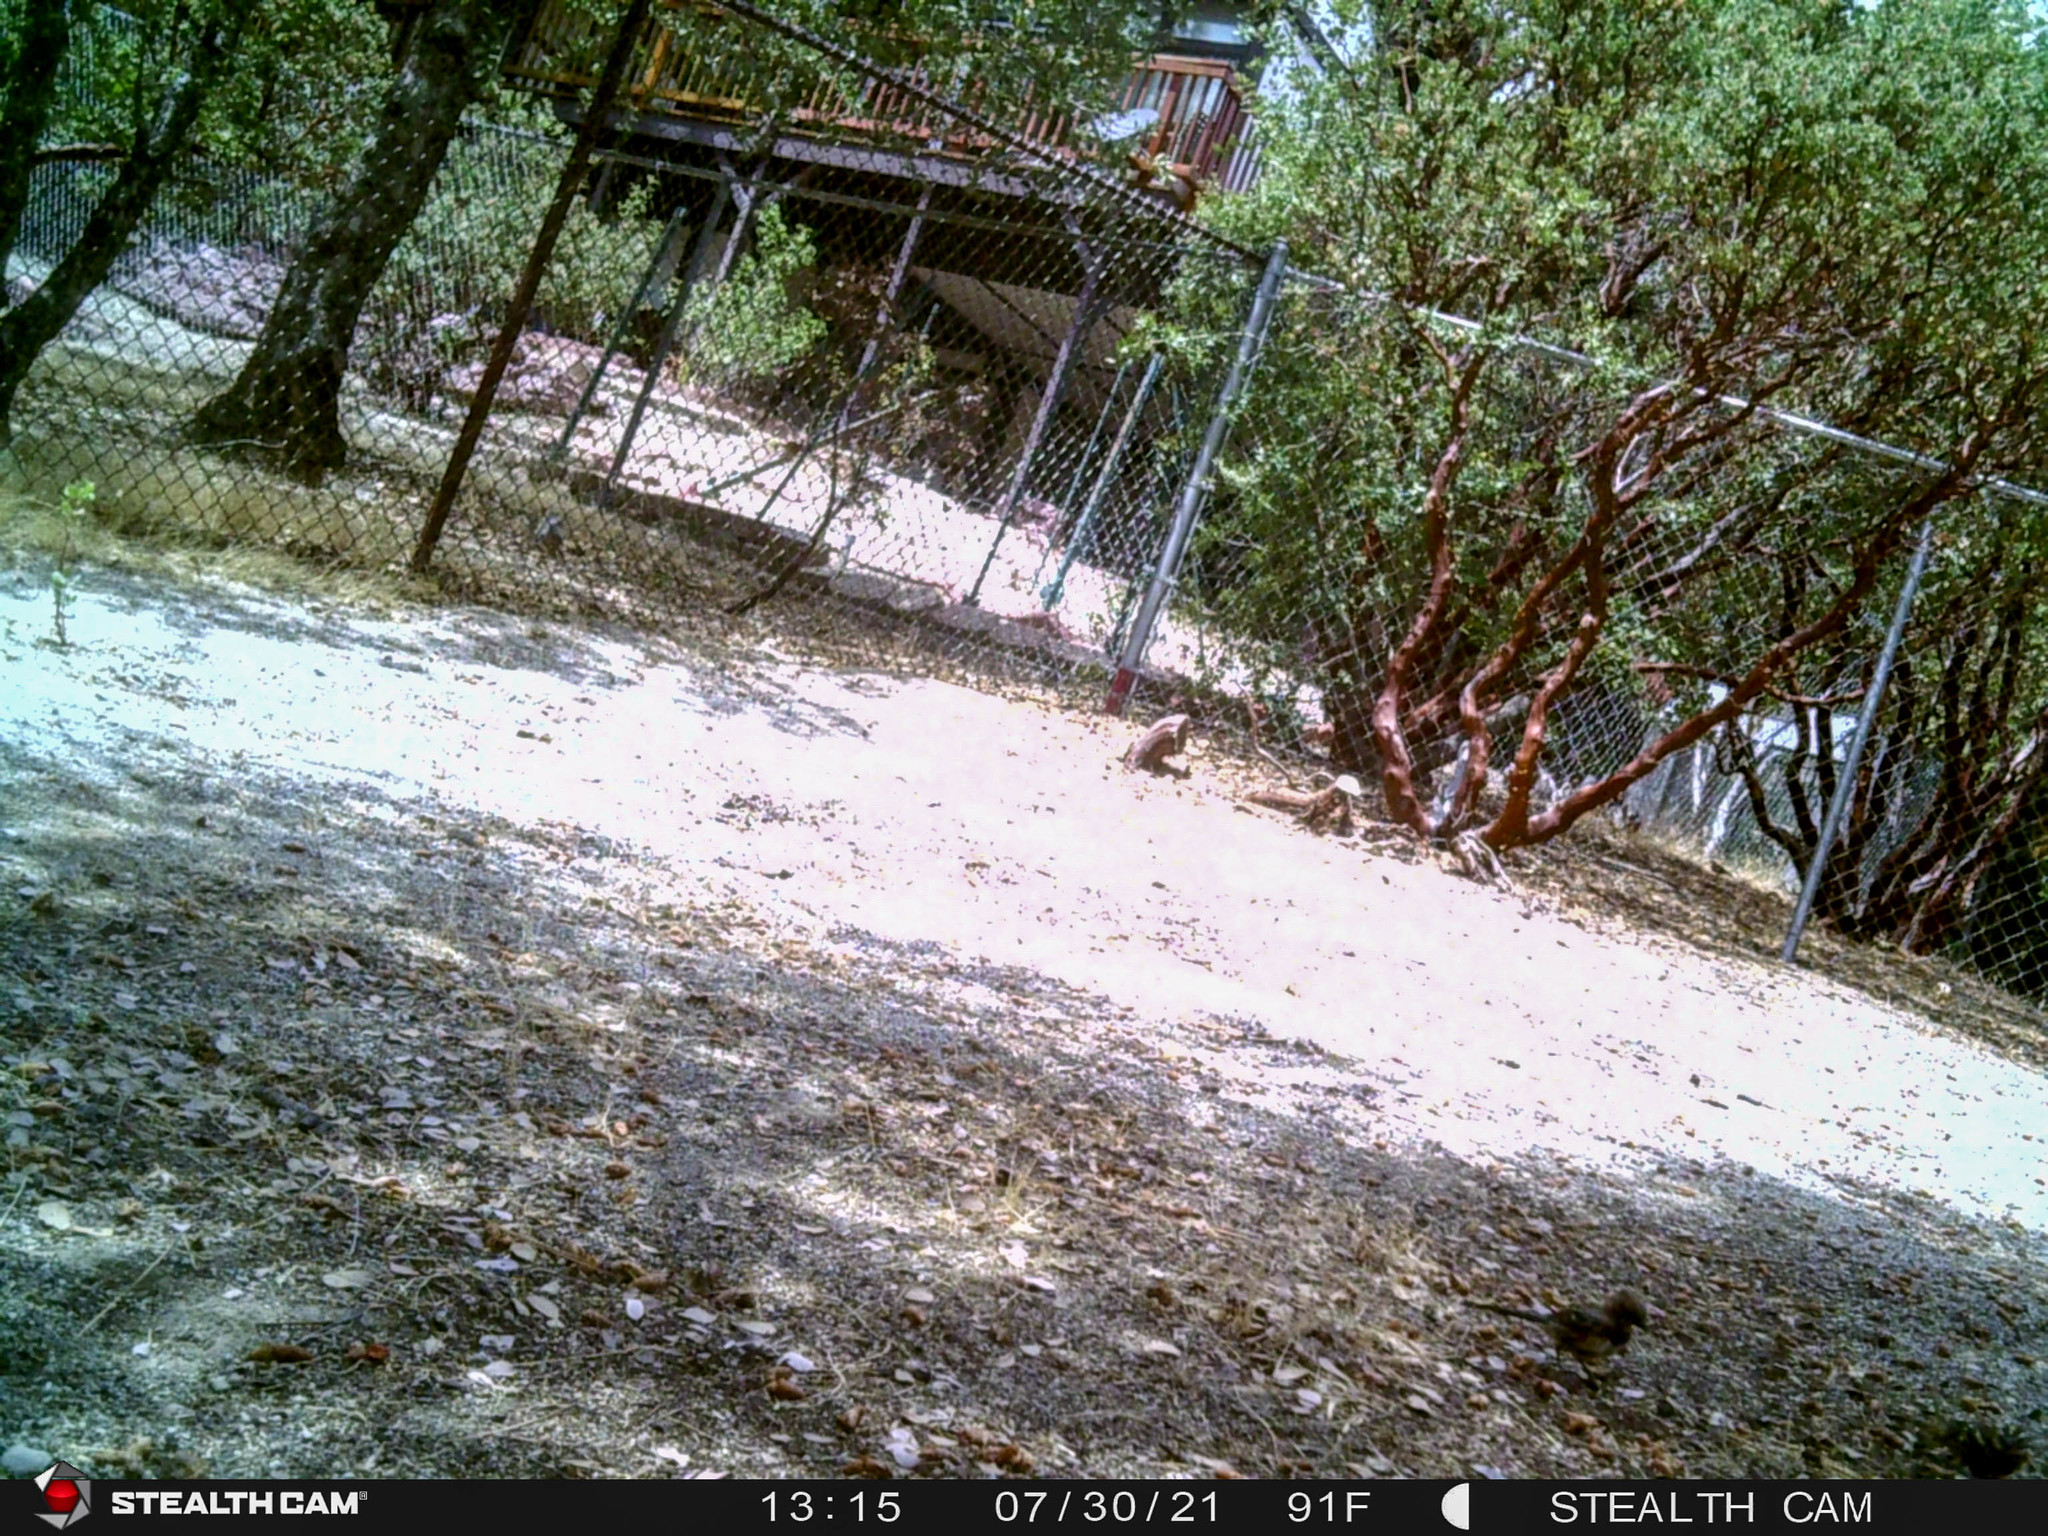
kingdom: Animalia
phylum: Chordata
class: Aves
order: Passeriformes
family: Cardinalidae
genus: Pheucticus
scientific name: Pheucticus melanocephalus
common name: Black-headed grosbeak
